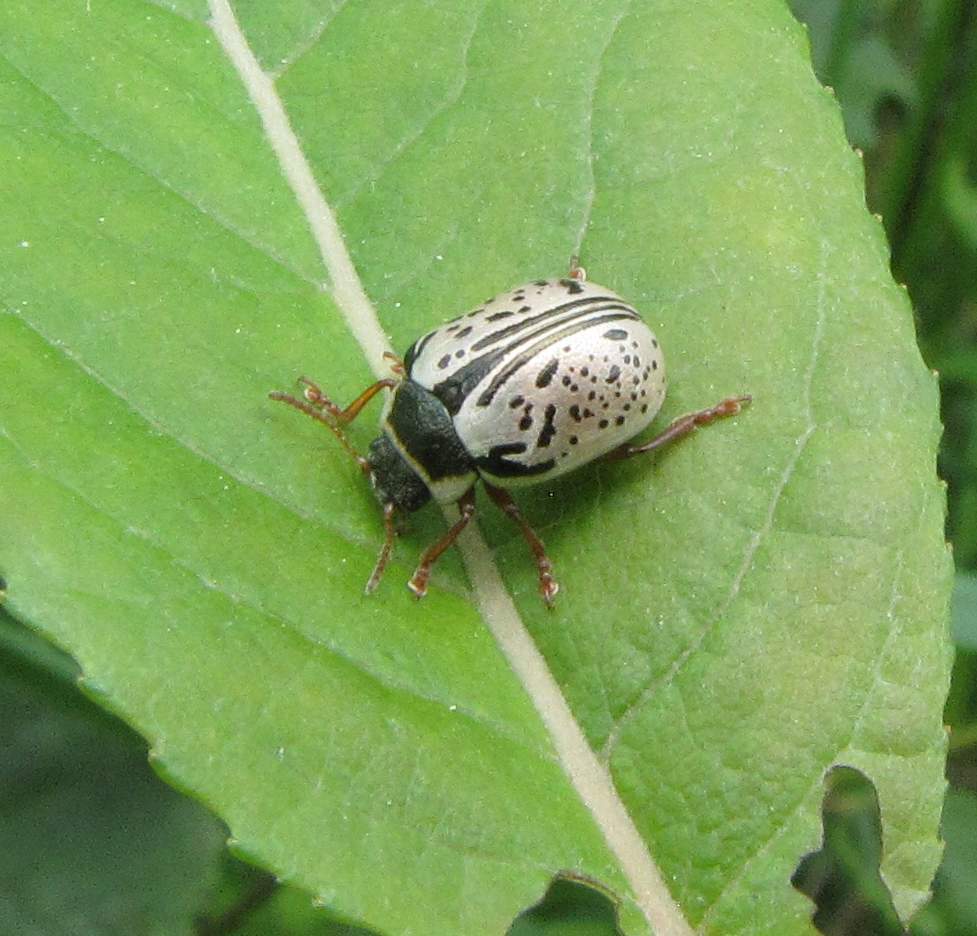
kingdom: Animalia
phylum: Arthropoda
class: Insecta
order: Coleoptera
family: Chrysomelidae
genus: Calligrapha
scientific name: Calligrapha multipunctata
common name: Common willow calligrapher beetle
